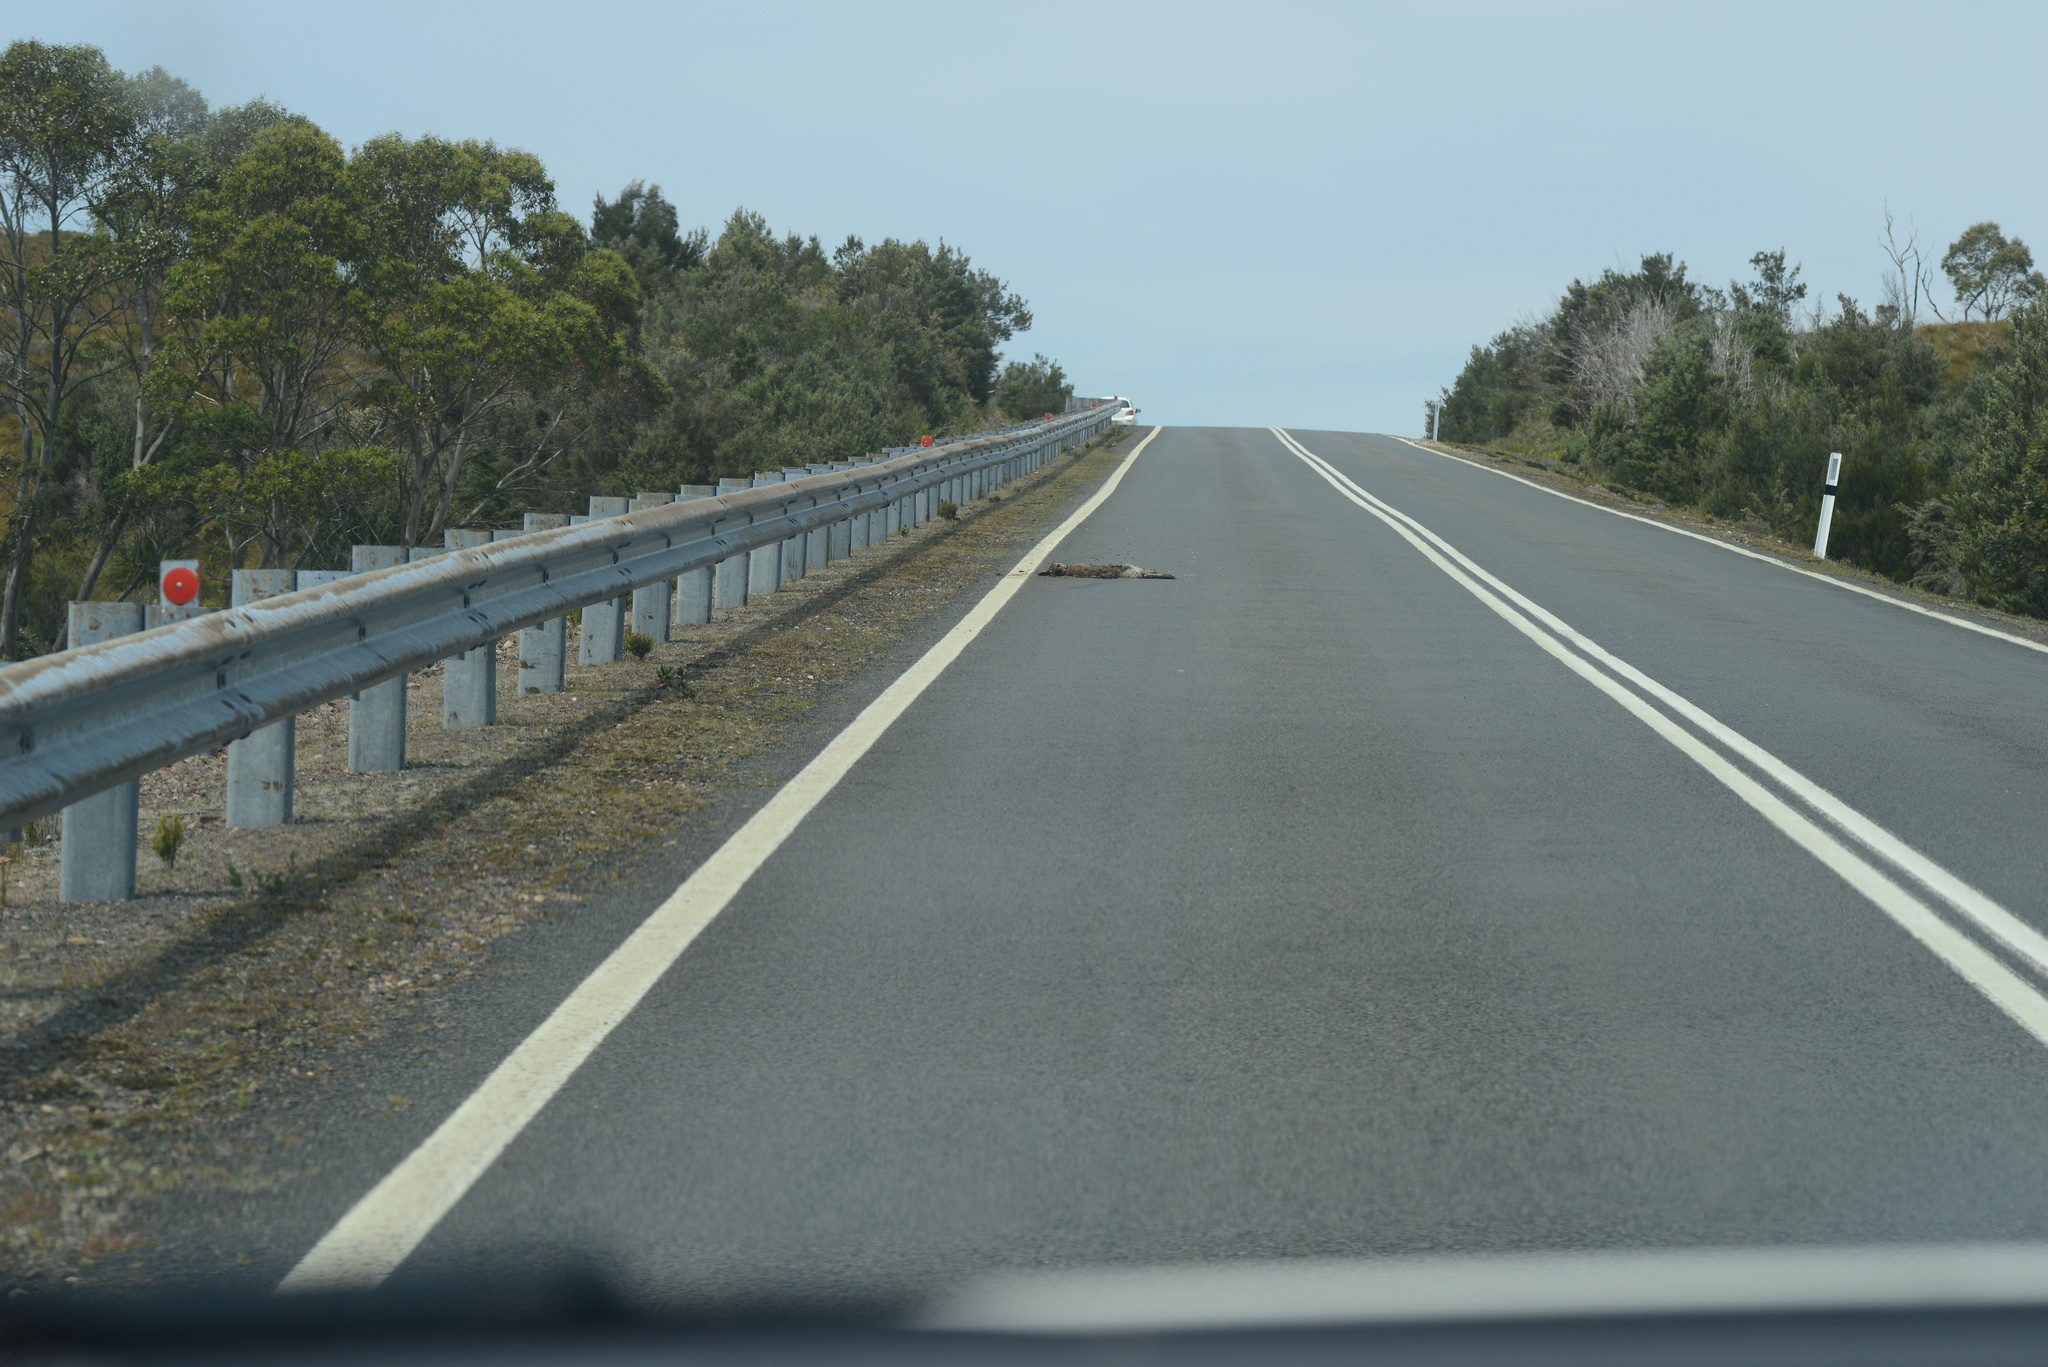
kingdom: Animalia
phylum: Chordata
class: Mammalia
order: Diprotodontia
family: Macropodidae
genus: Notamacropus
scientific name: Notamacropus rufogriseus
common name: Red-necked wallaby
